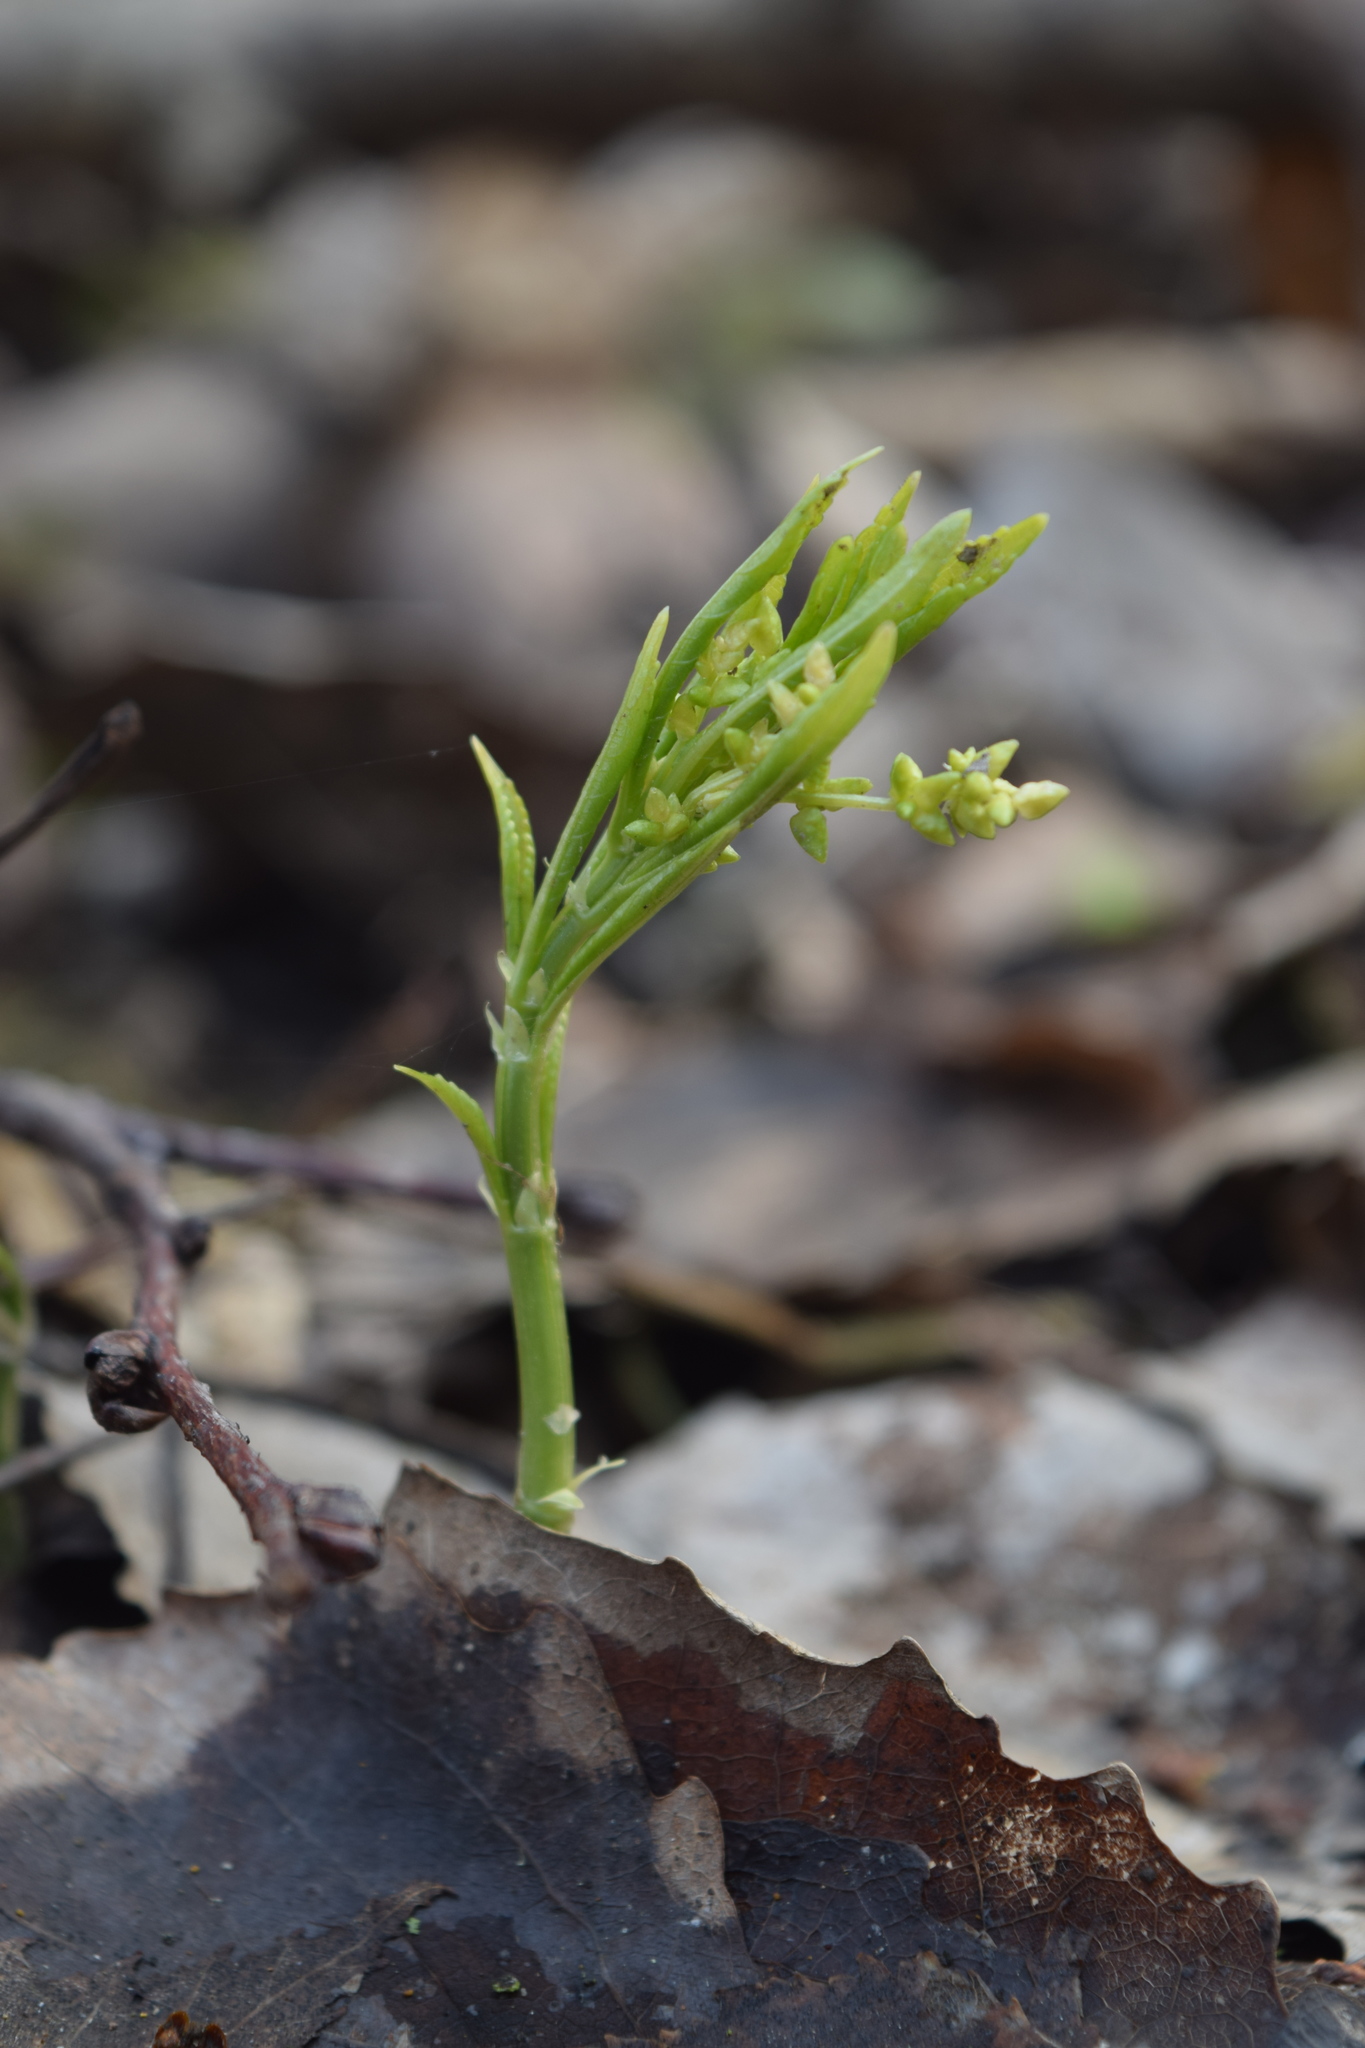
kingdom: Plantae
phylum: Tracheophyta
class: Magnoliopsida
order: Malpighiales
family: Euphorbiaceae
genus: Mercurialis
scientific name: Mercurialis perennis
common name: Dog mercury
